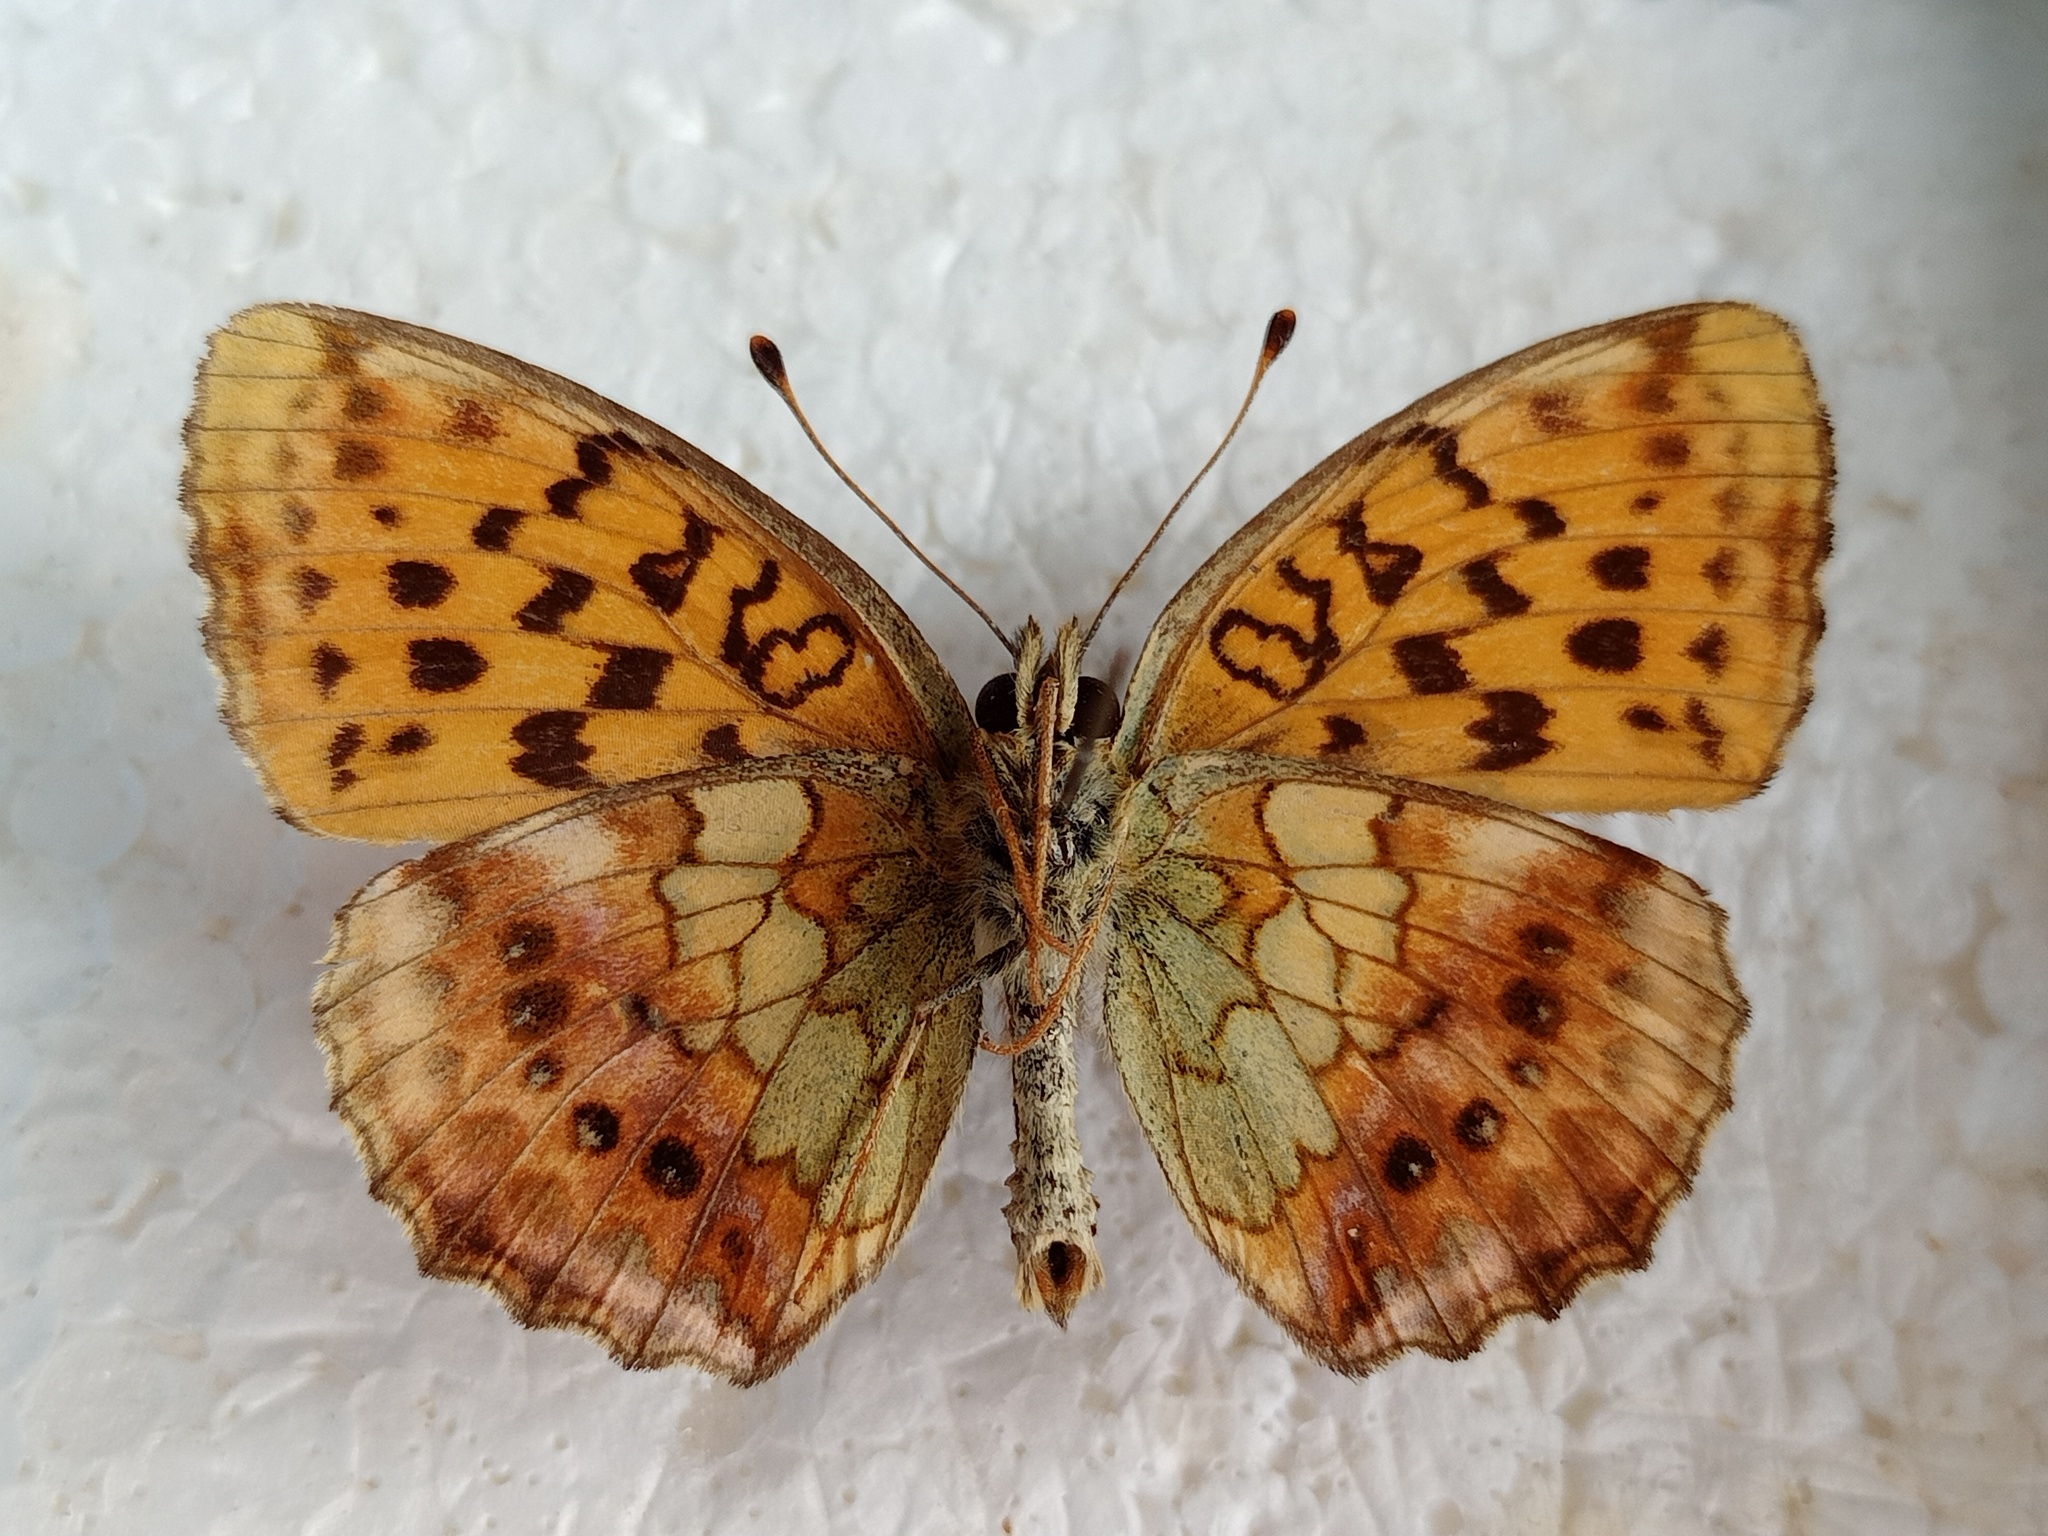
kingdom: Animalia
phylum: Arthropoda
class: Insecta
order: Lepidoptera
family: Nymphalidae
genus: Brenthis
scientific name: Brenthis daphne
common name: Marbled fritillary
